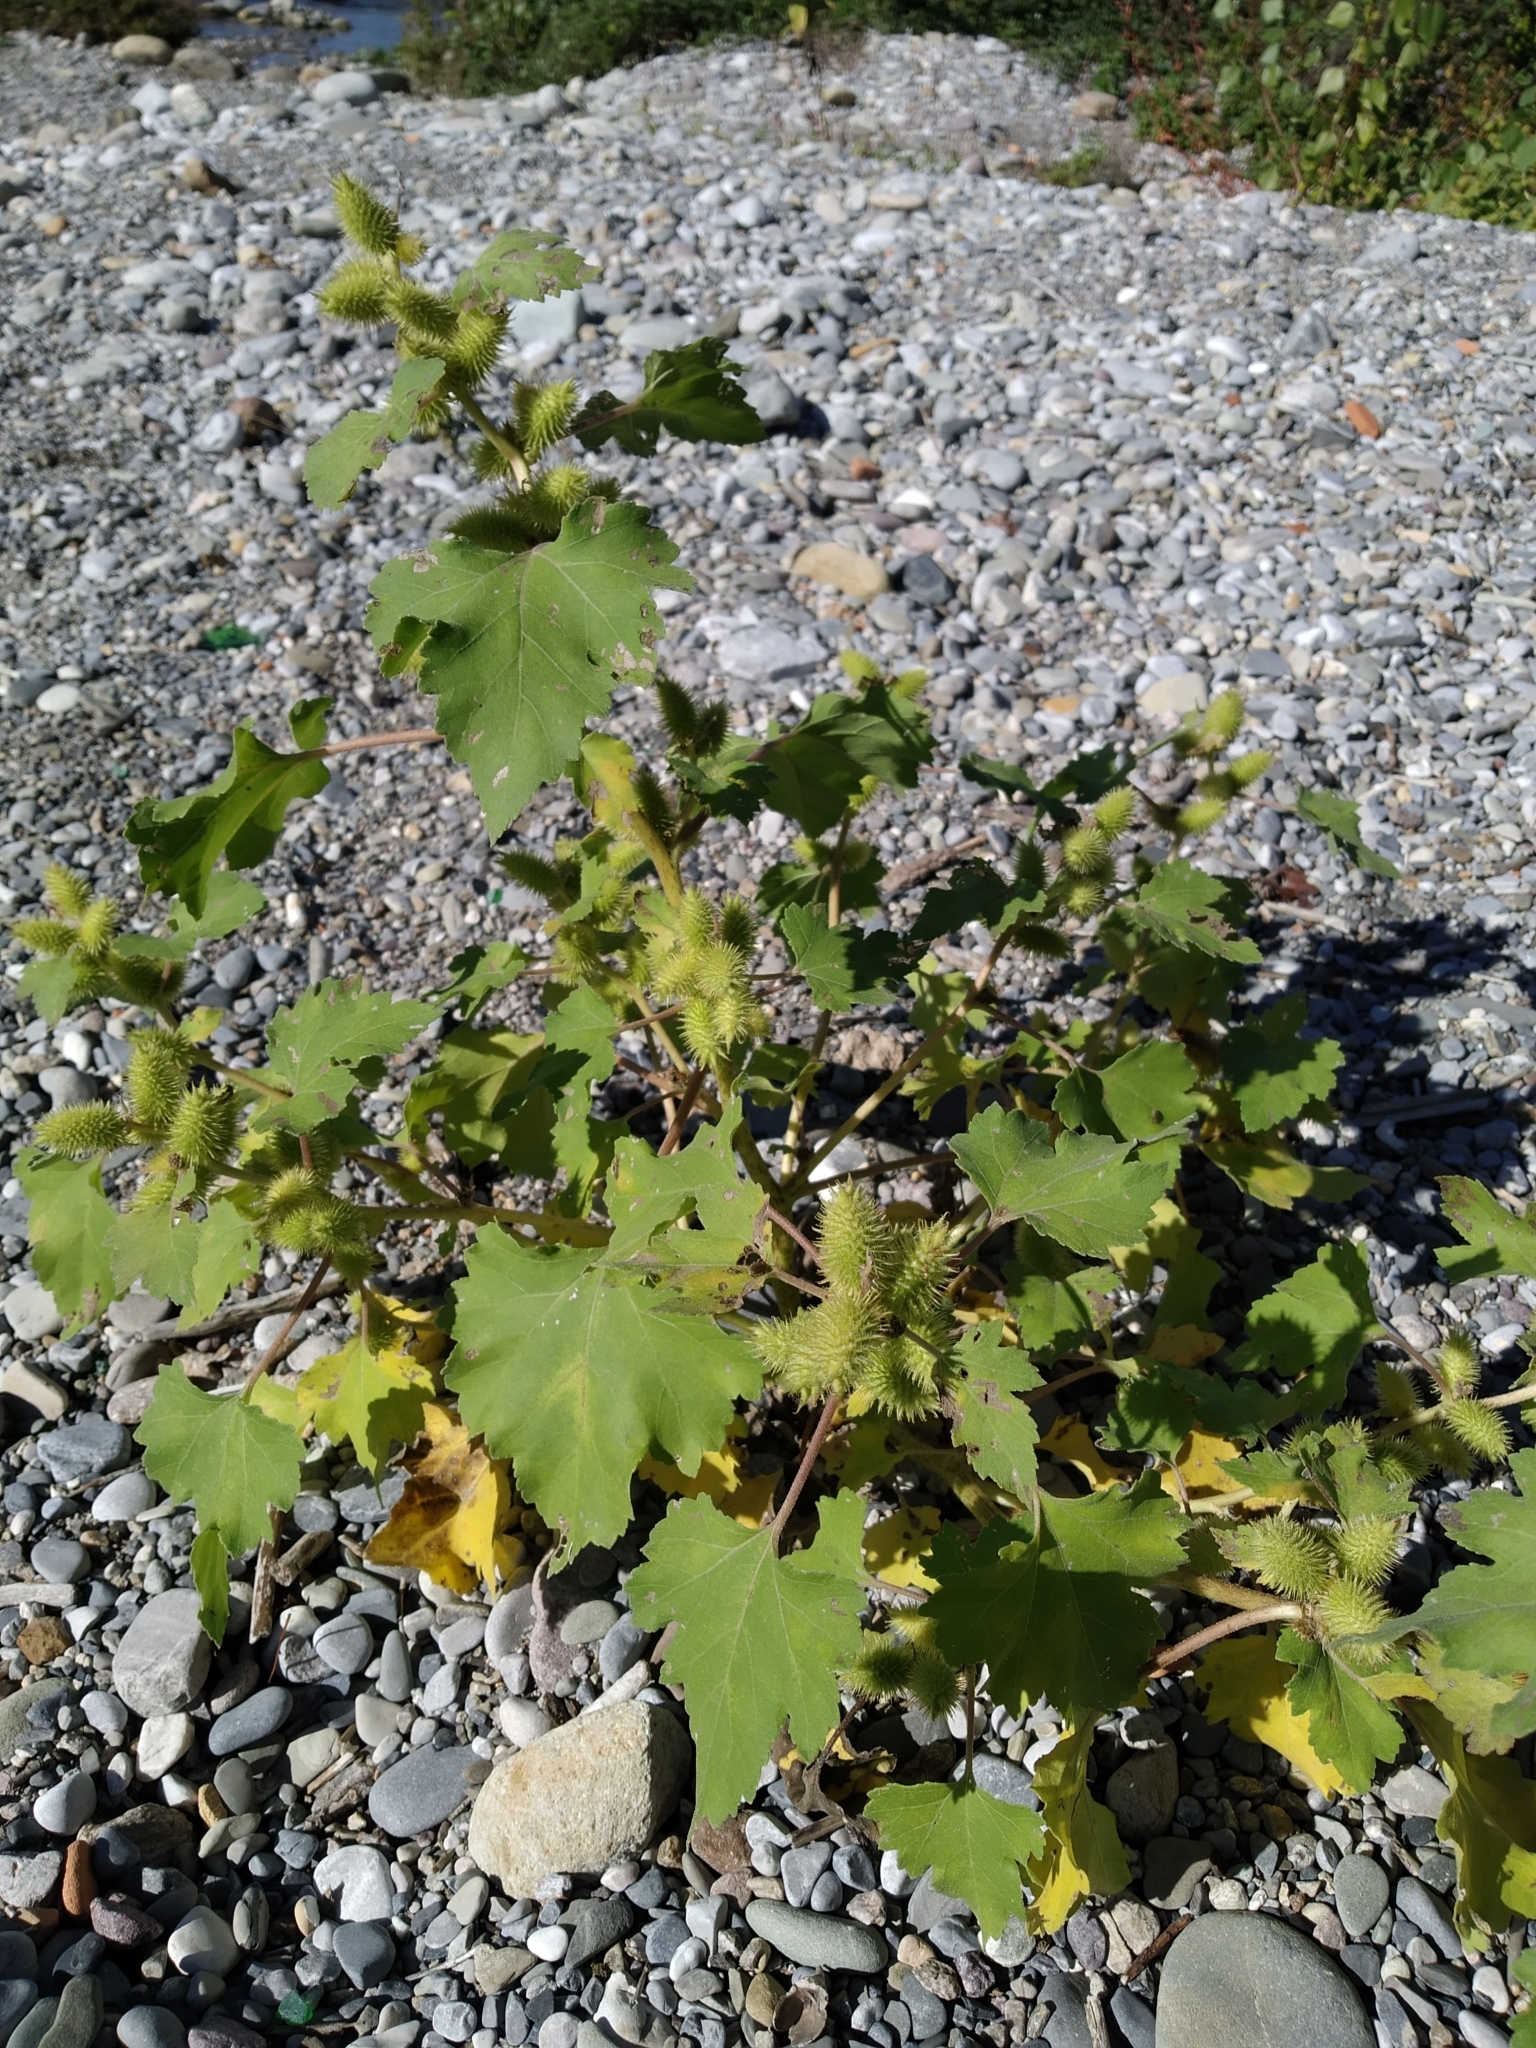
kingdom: Plantae
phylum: Tracheophyta
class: Magnoliopsida
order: Asterales
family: Asteraceae
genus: Xanthium
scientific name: Xanthium orientale
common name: Californian burr
